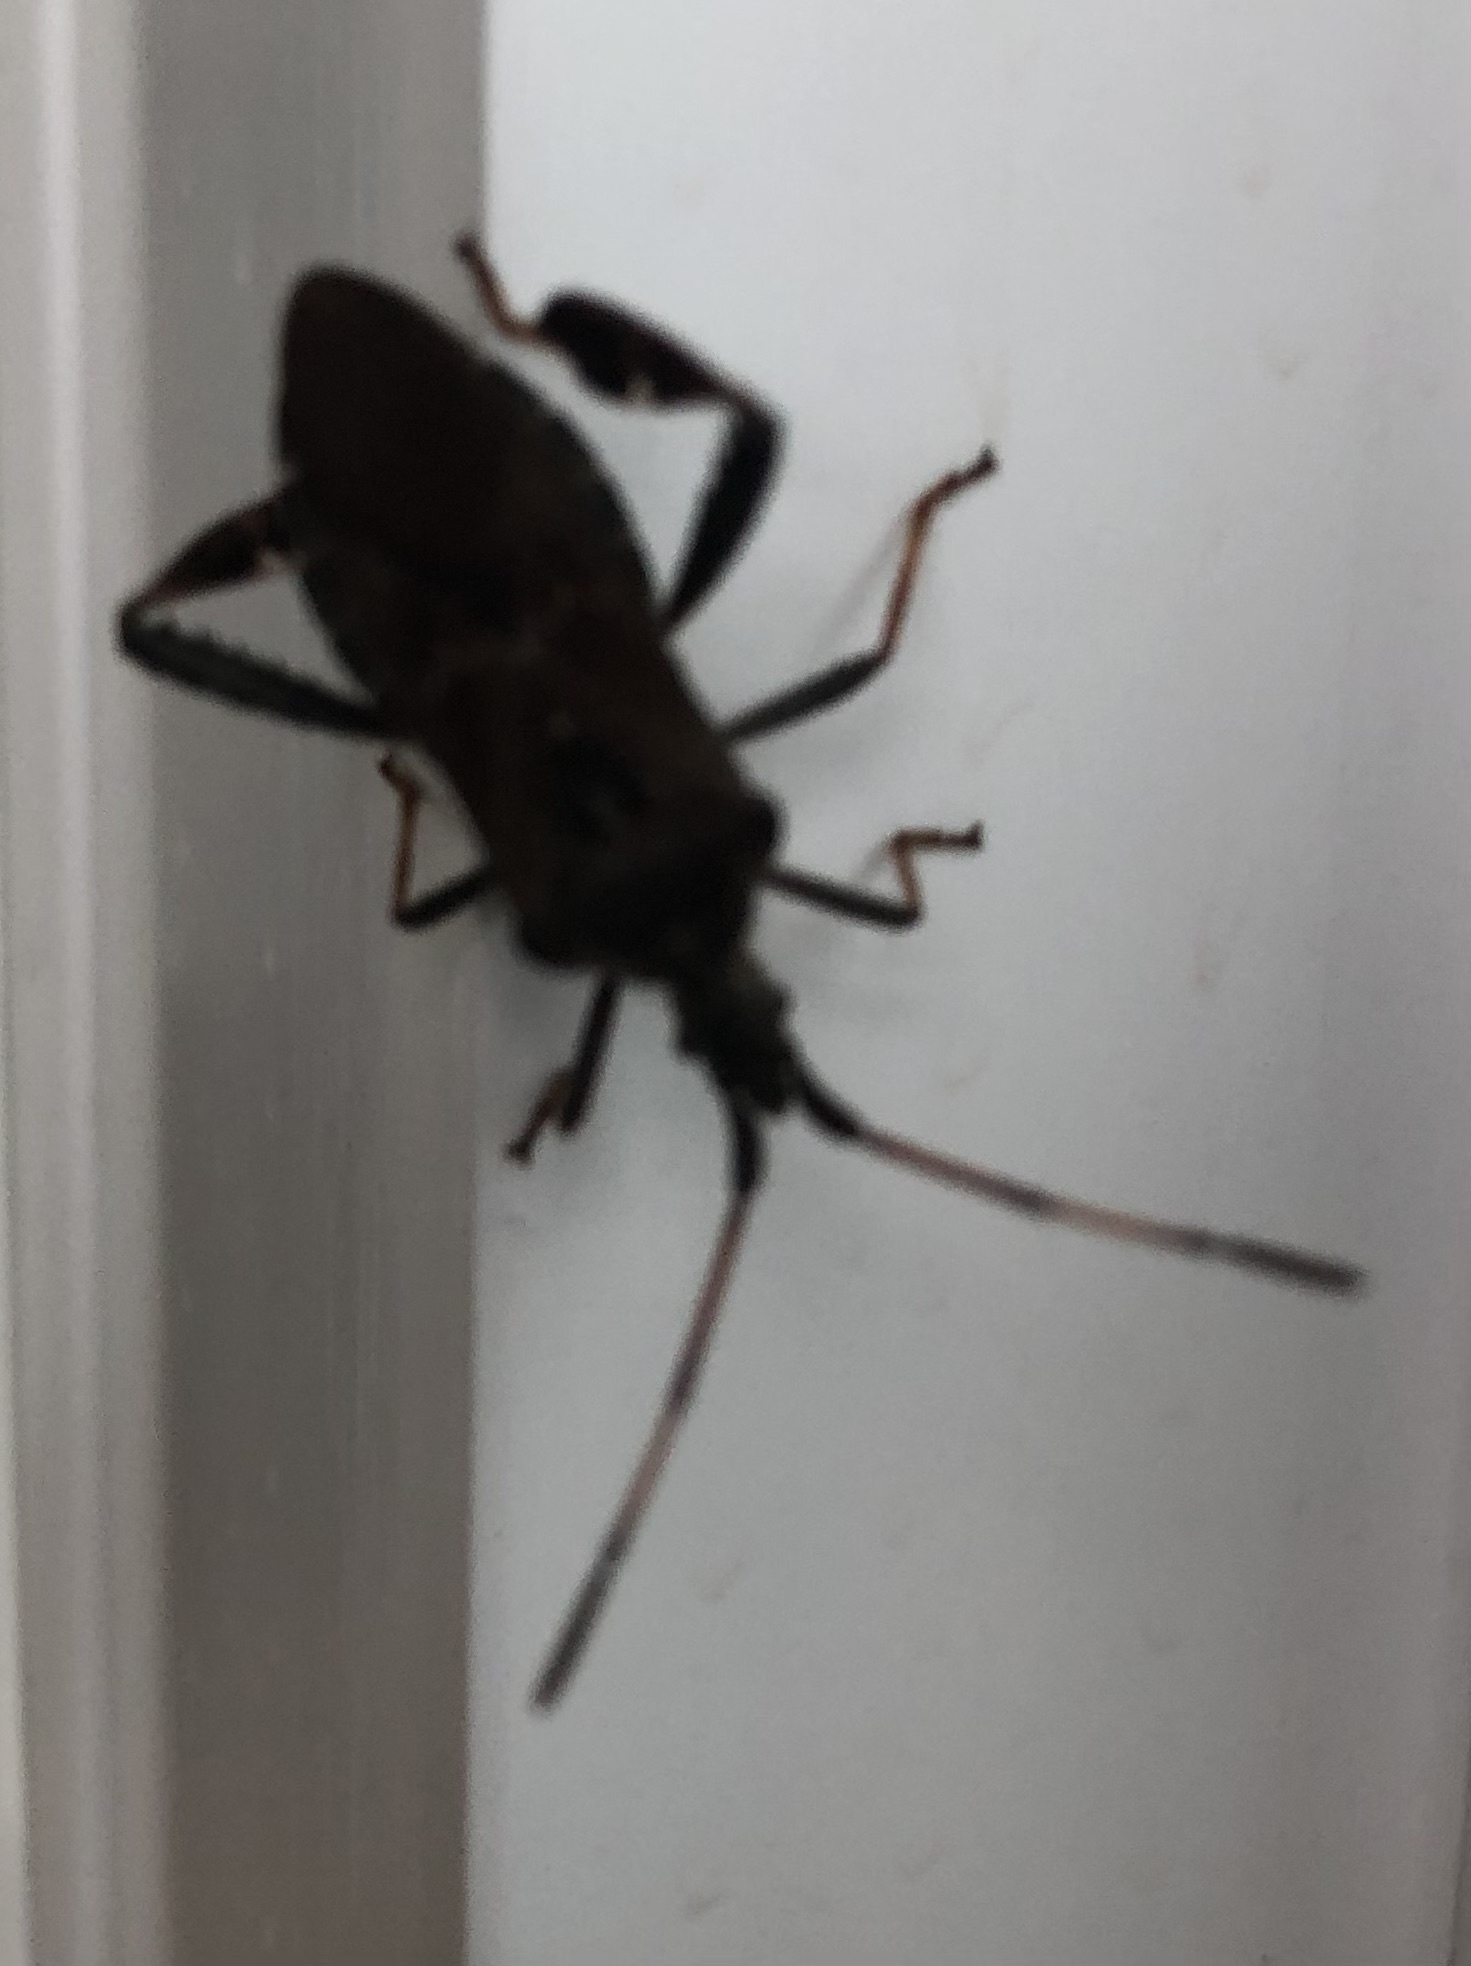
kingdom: Animalia
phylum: Arthropoda
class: Insecta
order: Hemiptera
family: Coreidae
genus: Leptoglossus
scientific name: Leptoglossus corculus
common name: Southern pine seed bug
